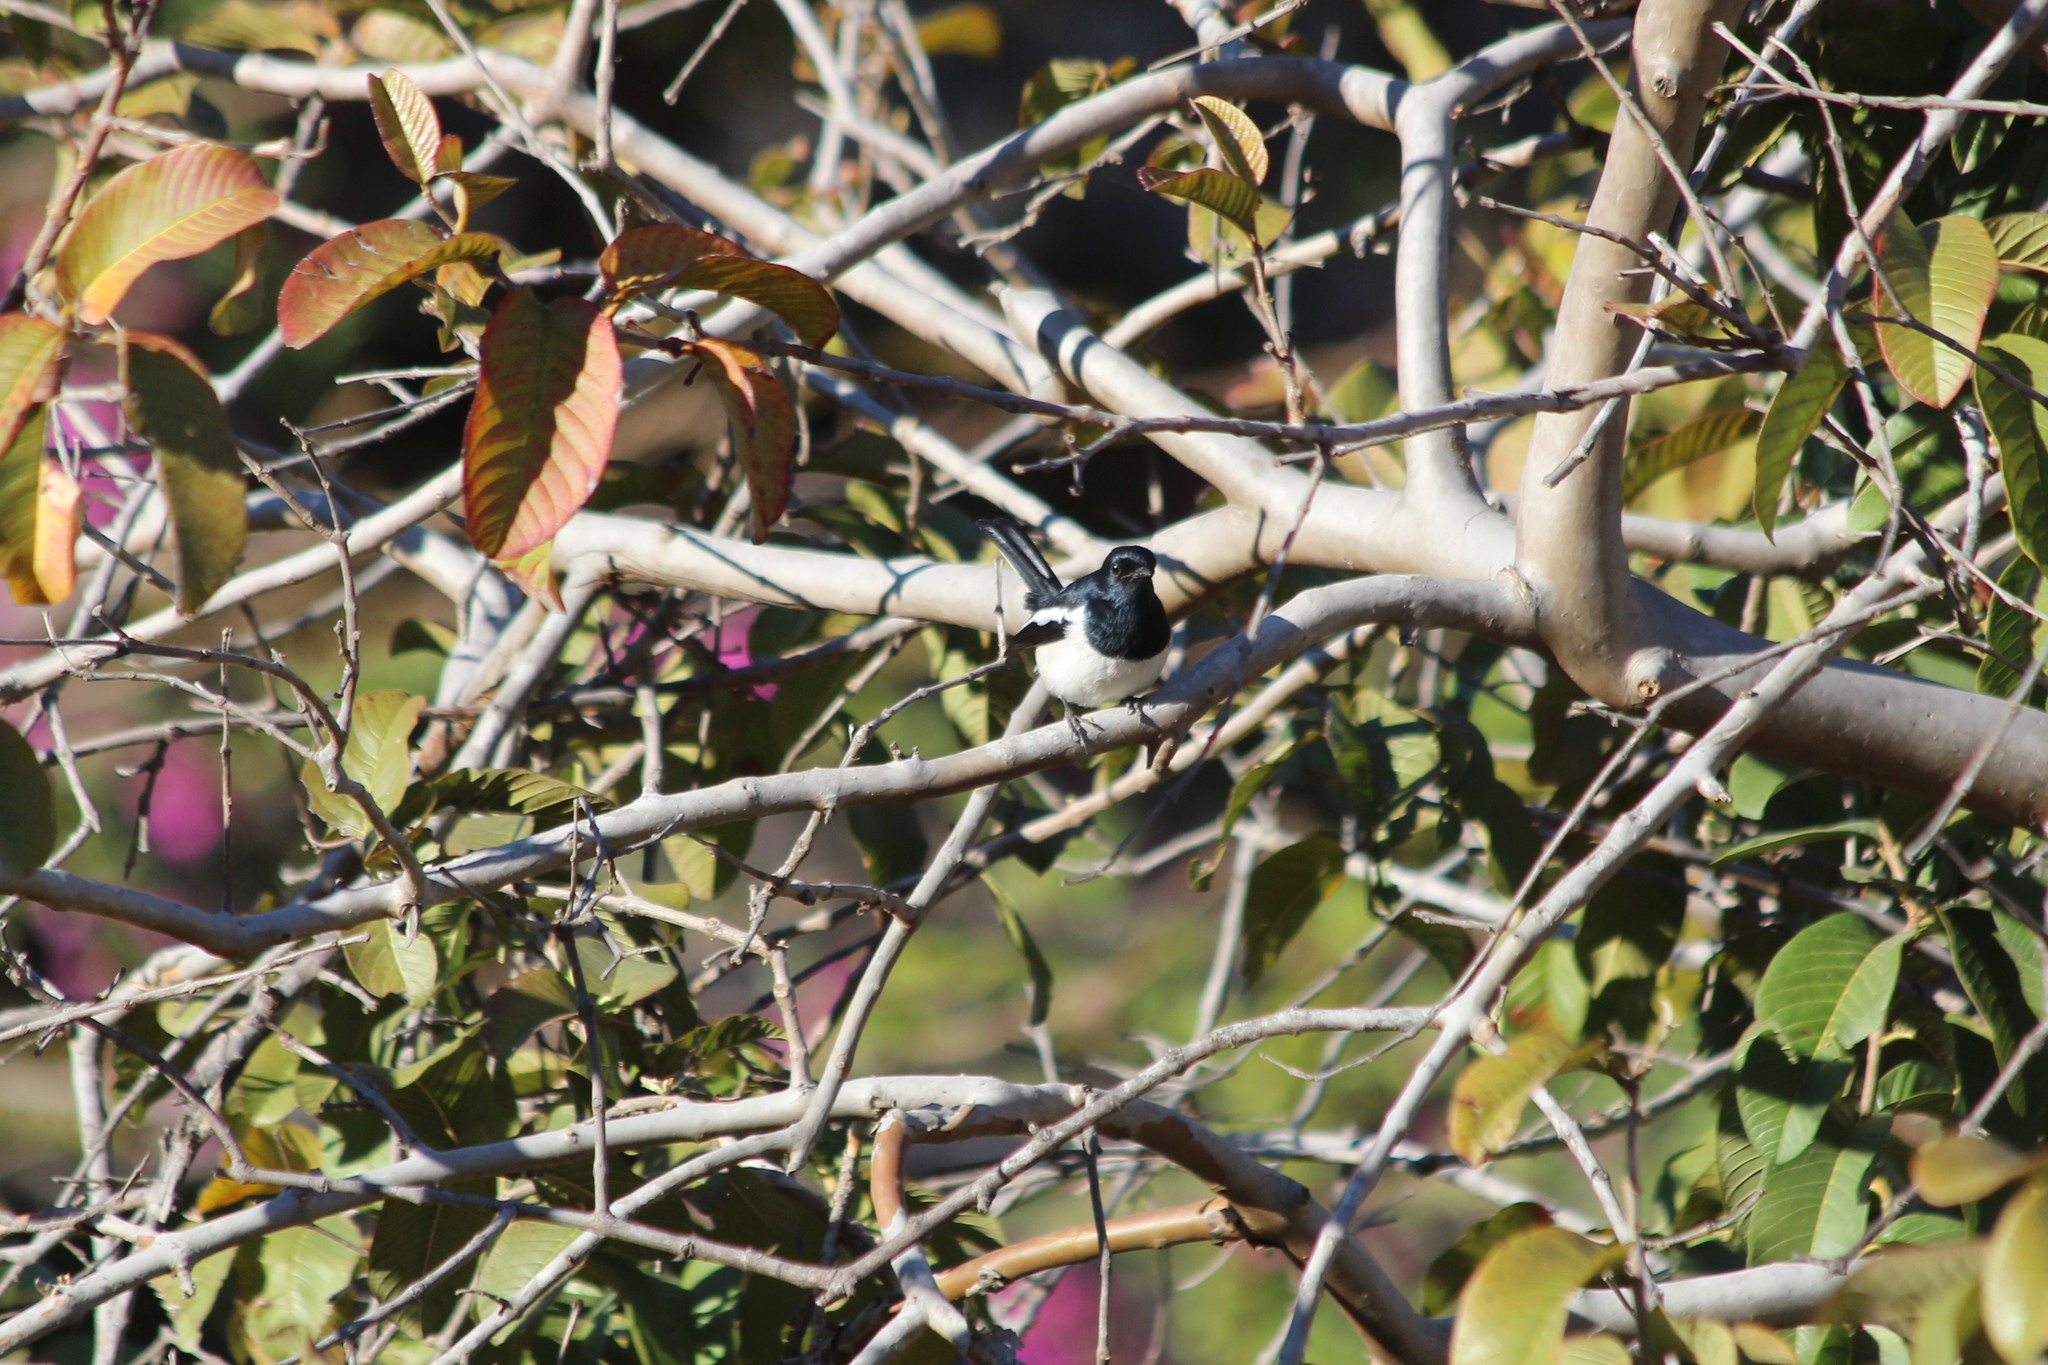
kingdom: Animalia
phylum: Chordata
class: Aves
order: Passeriformes
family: Muscicapidae
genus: Copsychus
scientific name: Copsychus albospecularis
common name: Madagascar magpie-robin
